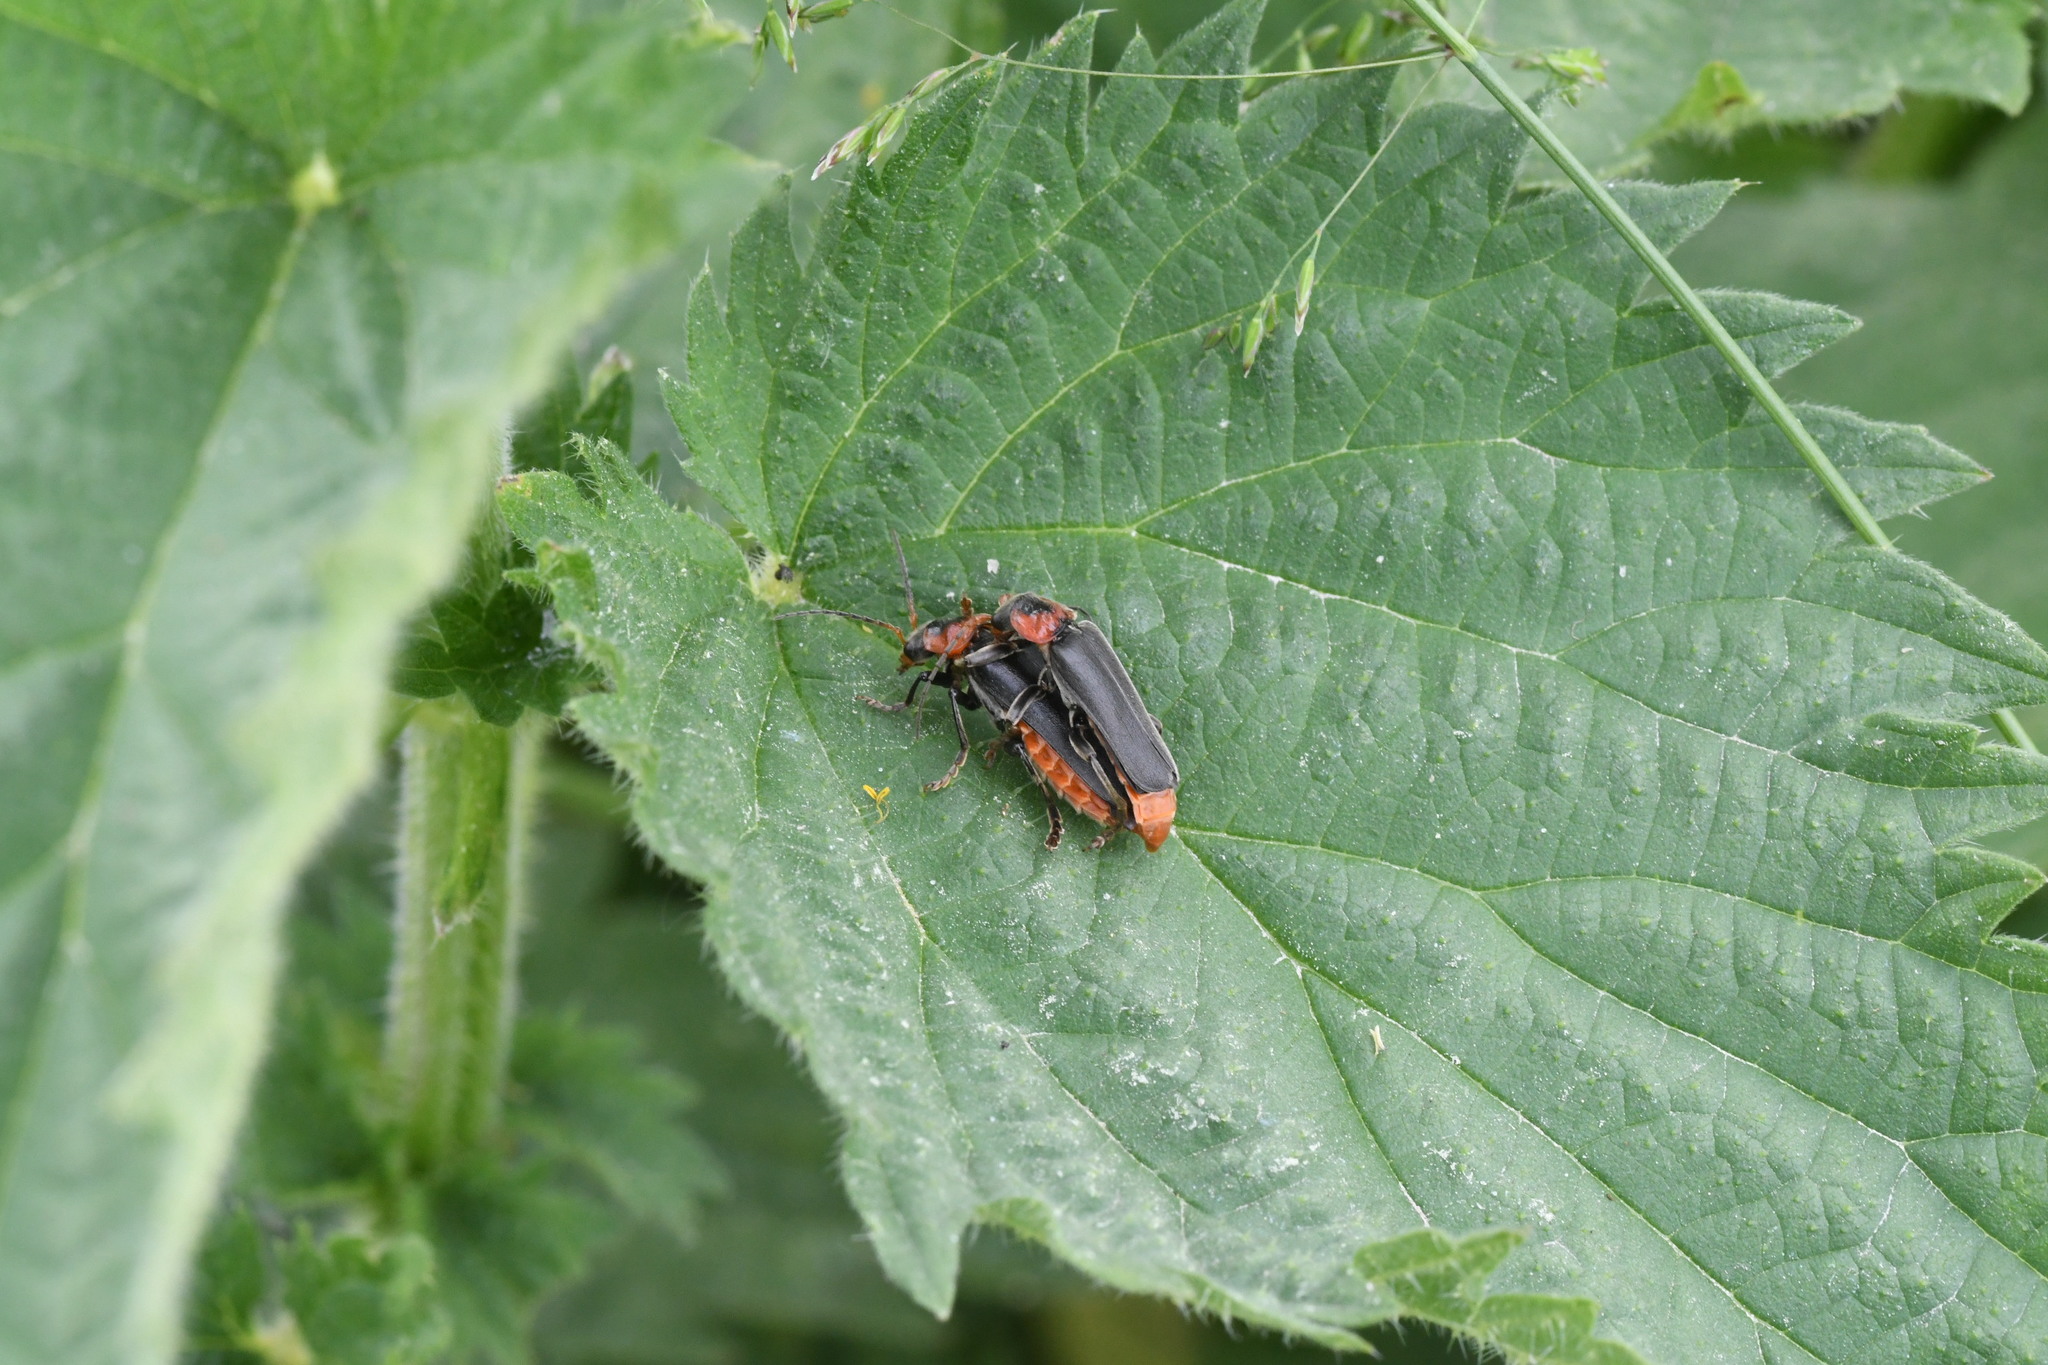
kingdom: Animalia
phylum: Arthropoda
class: Insecta
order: Coleoptera
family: Cantharidae
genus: Cantharis
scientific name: Cantharis fusca
